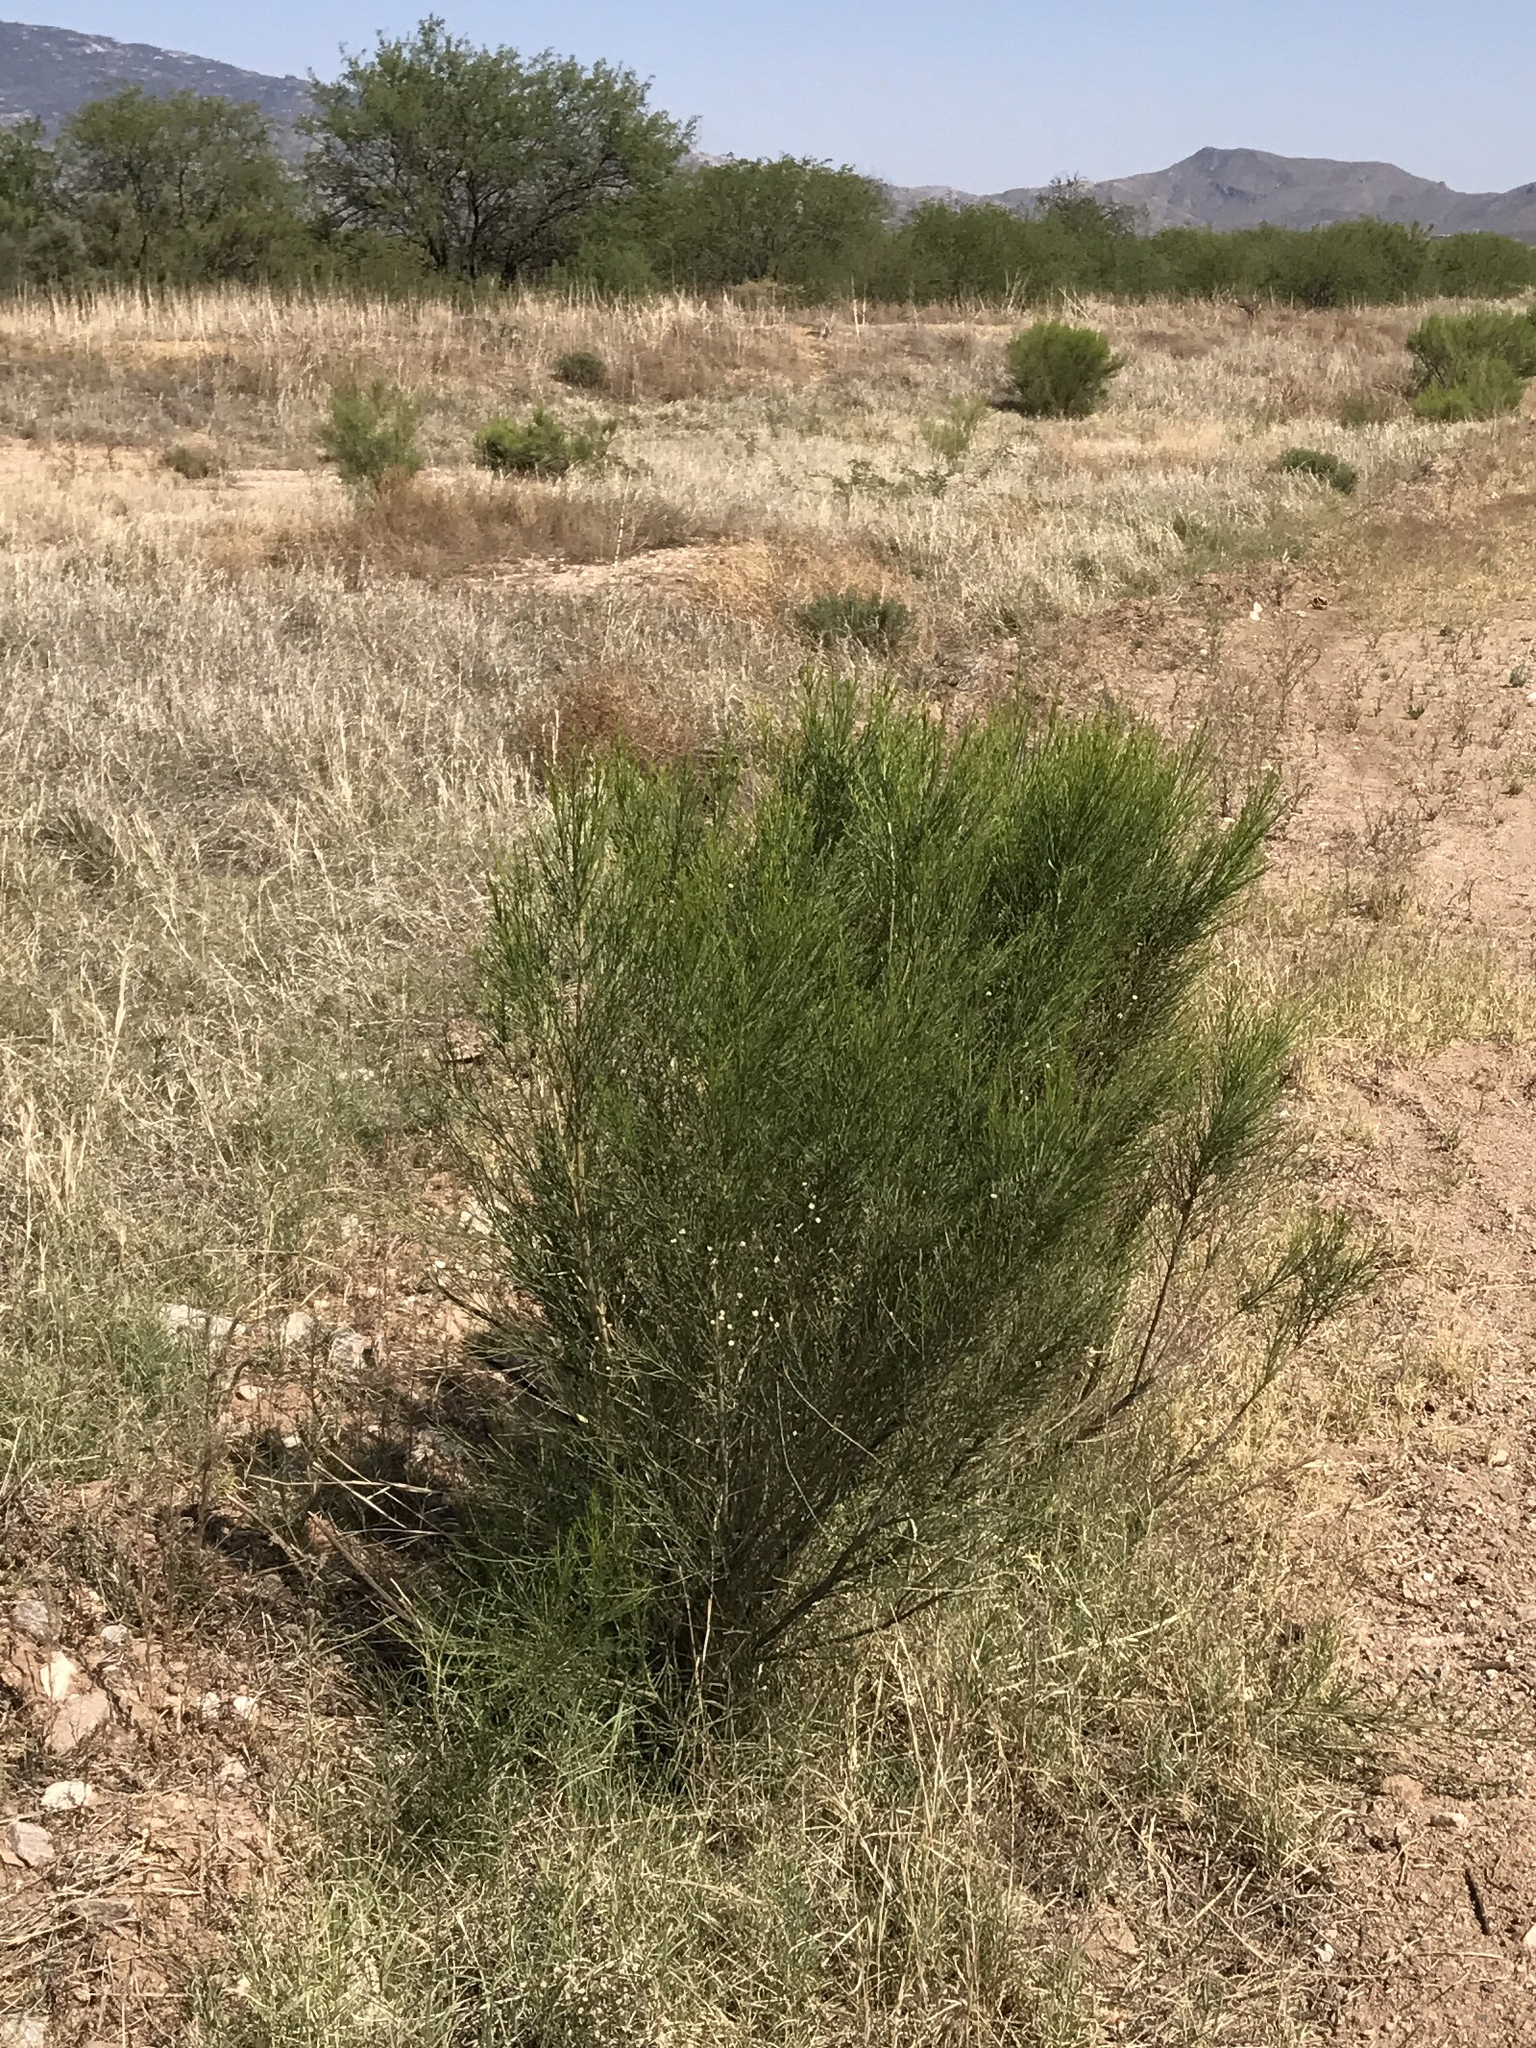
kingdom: Plantae
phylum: Tracheophyta
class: Magnoliopsida
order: Asterales
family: Asteraceae
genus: Baccharis
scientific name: Baccharis sarothroides
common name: Desert-broom
